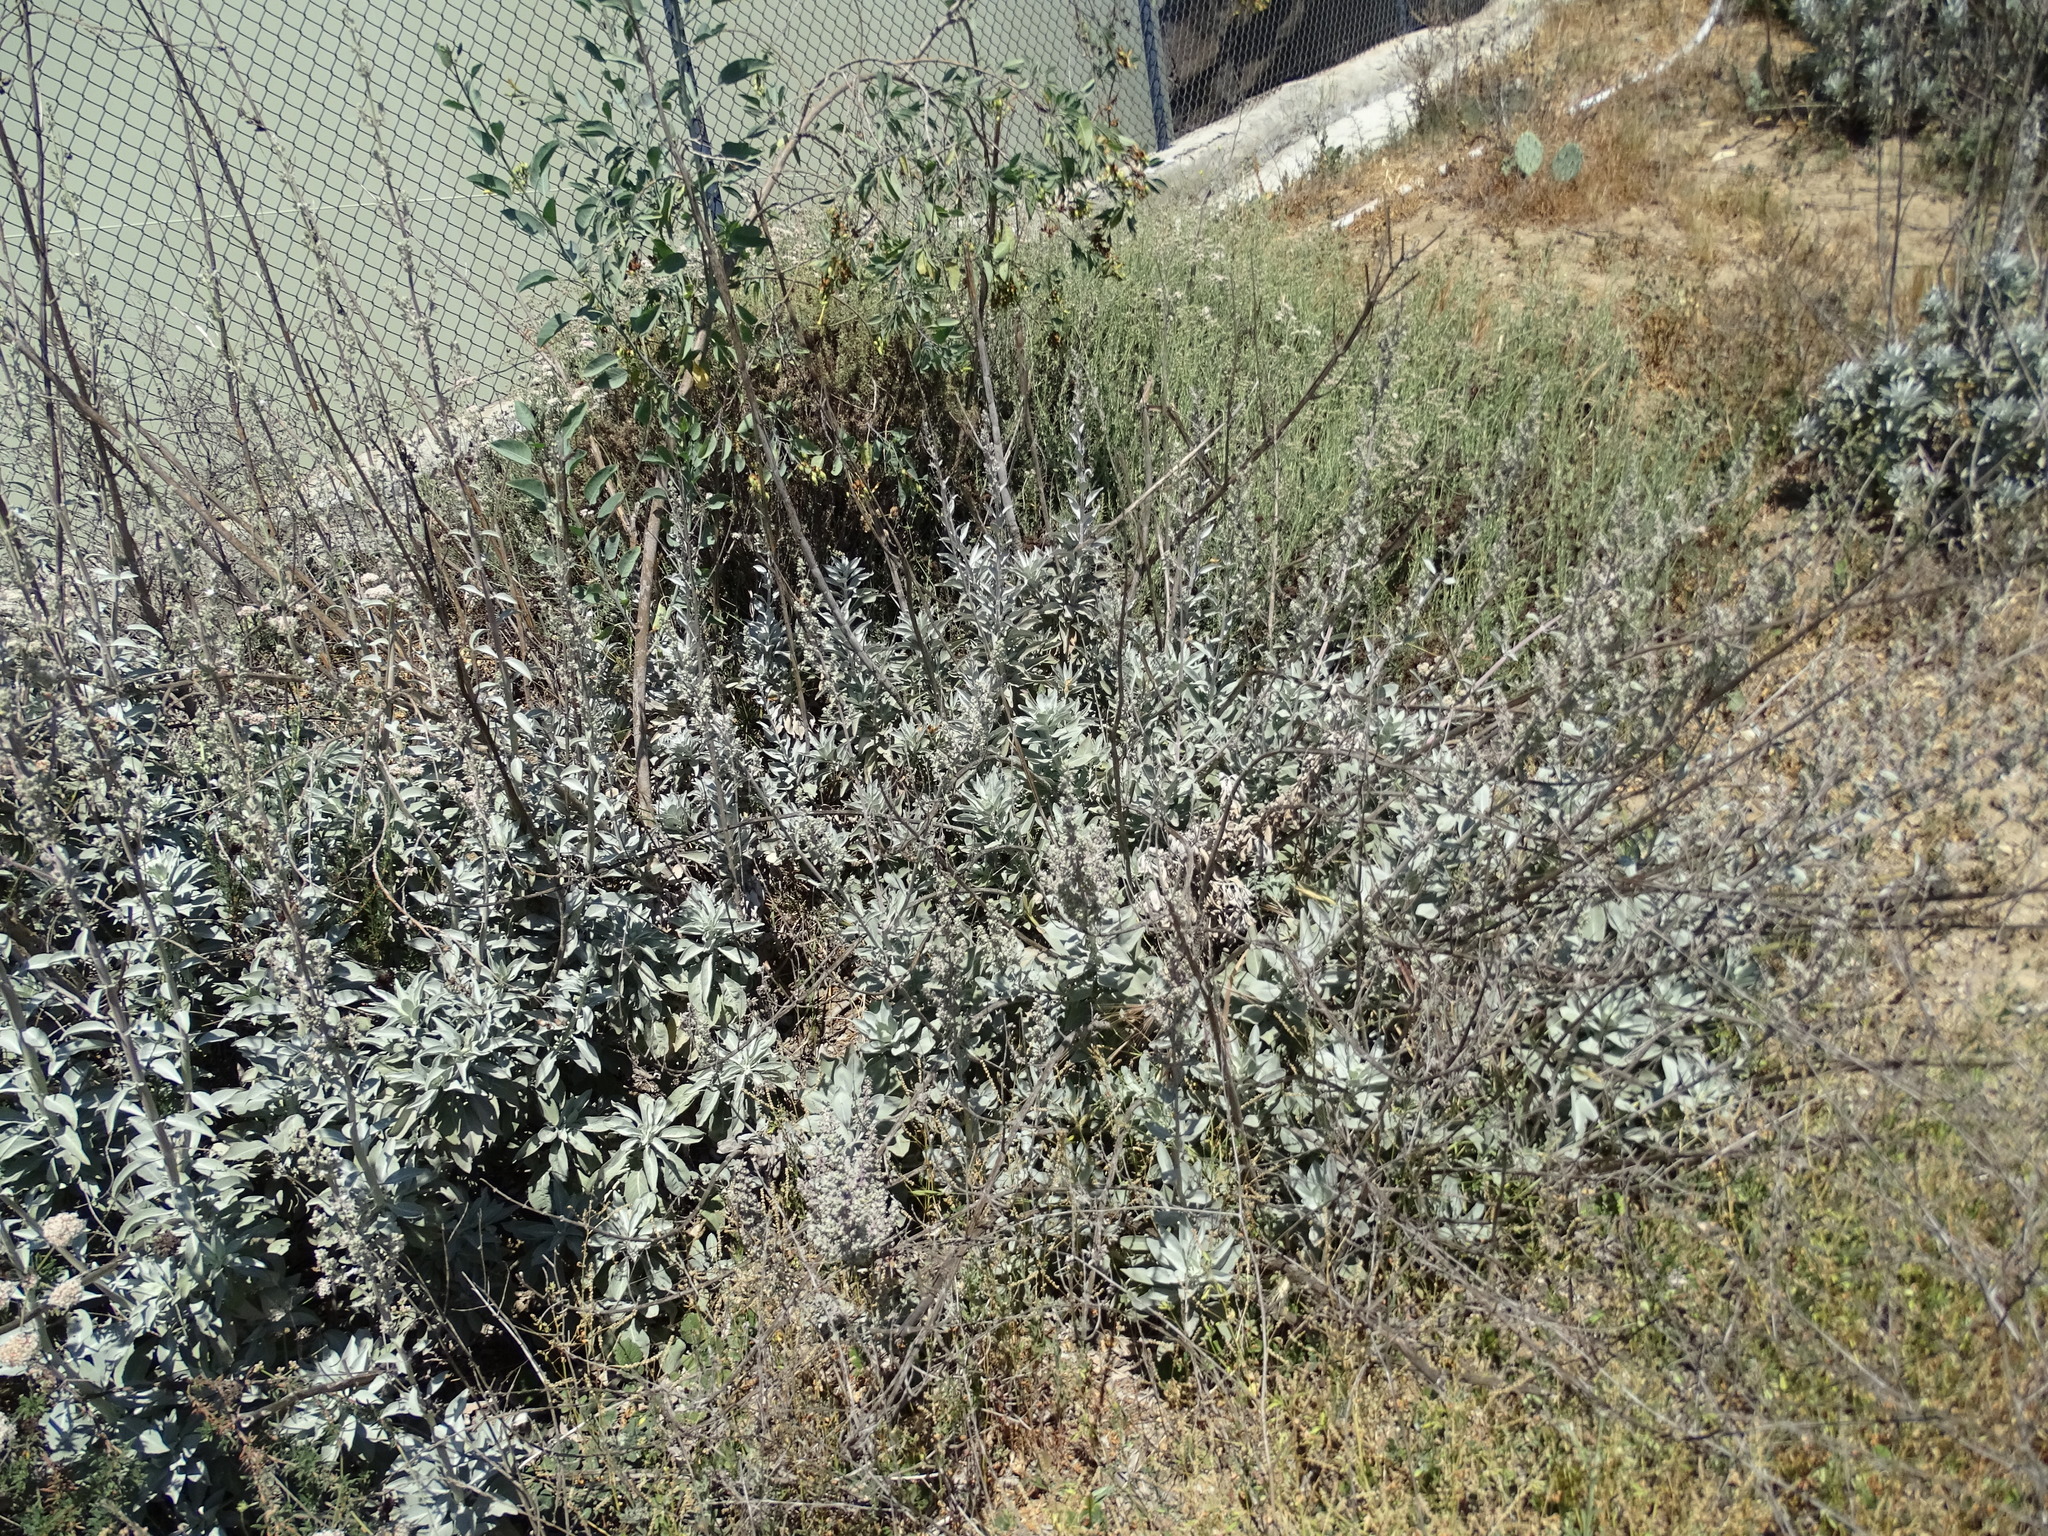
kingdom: Plantae
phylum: Tracheophyta
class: Magnoliopsida
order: Lamiales
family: Lamiaceae
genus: Salvia
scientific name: Salvia apiana
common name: White sage
